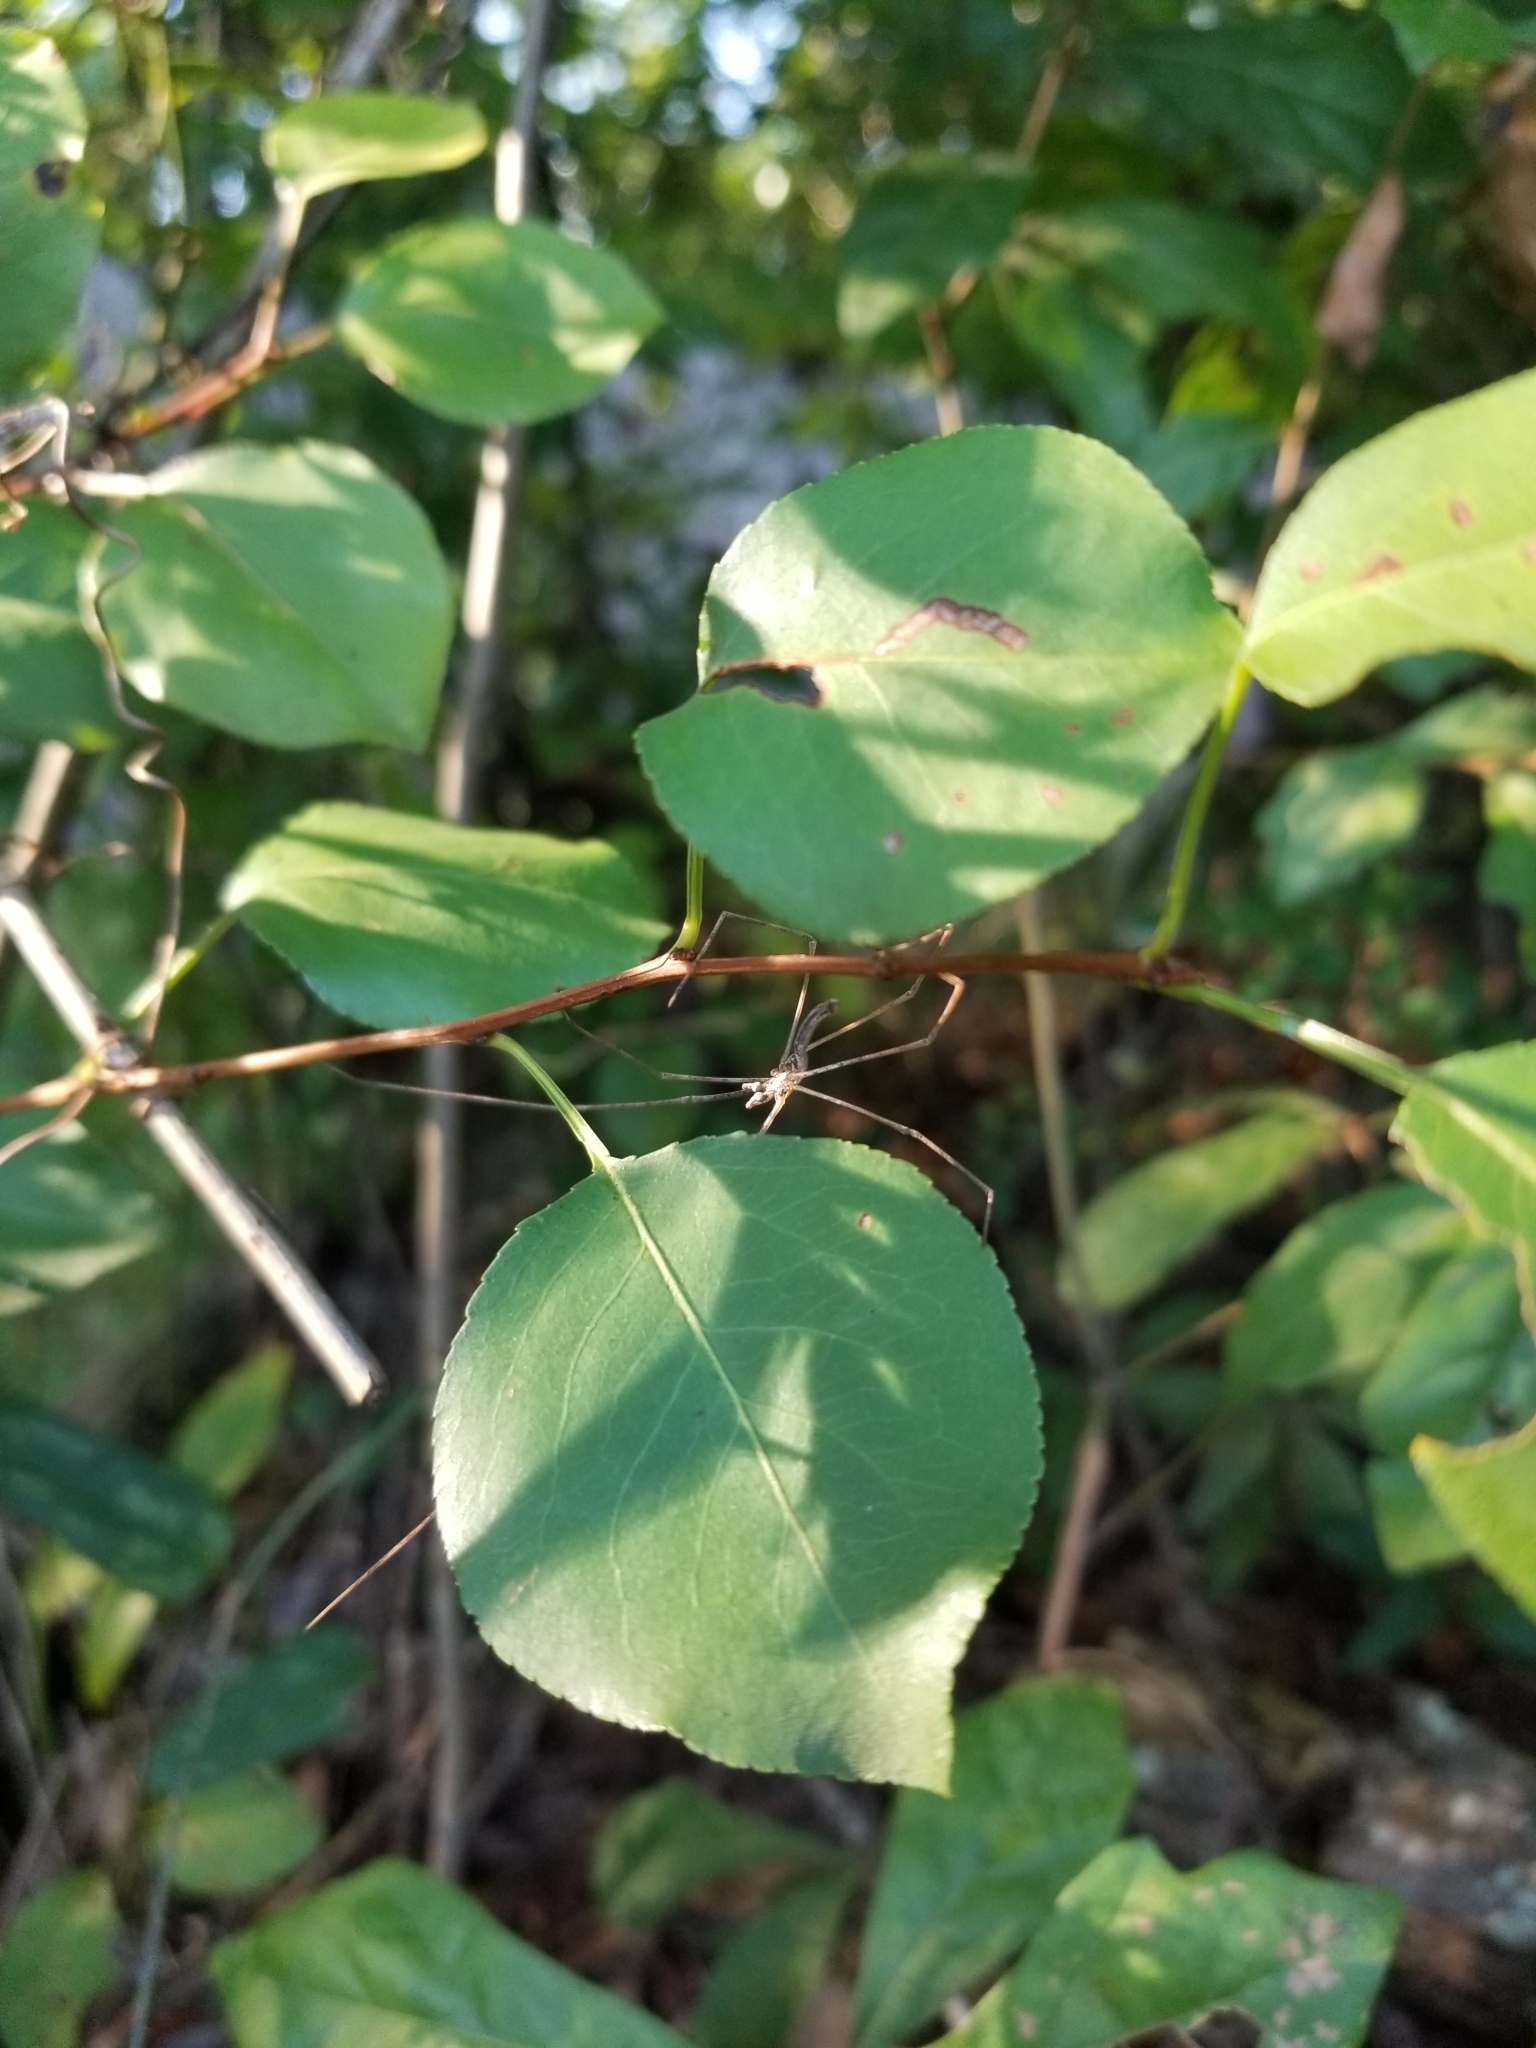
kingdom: Animalia
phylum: Arthropoda
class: Arachnida
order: Araneae
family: Deinopidae
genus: Deinopis
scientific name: Deinopis spinosa
